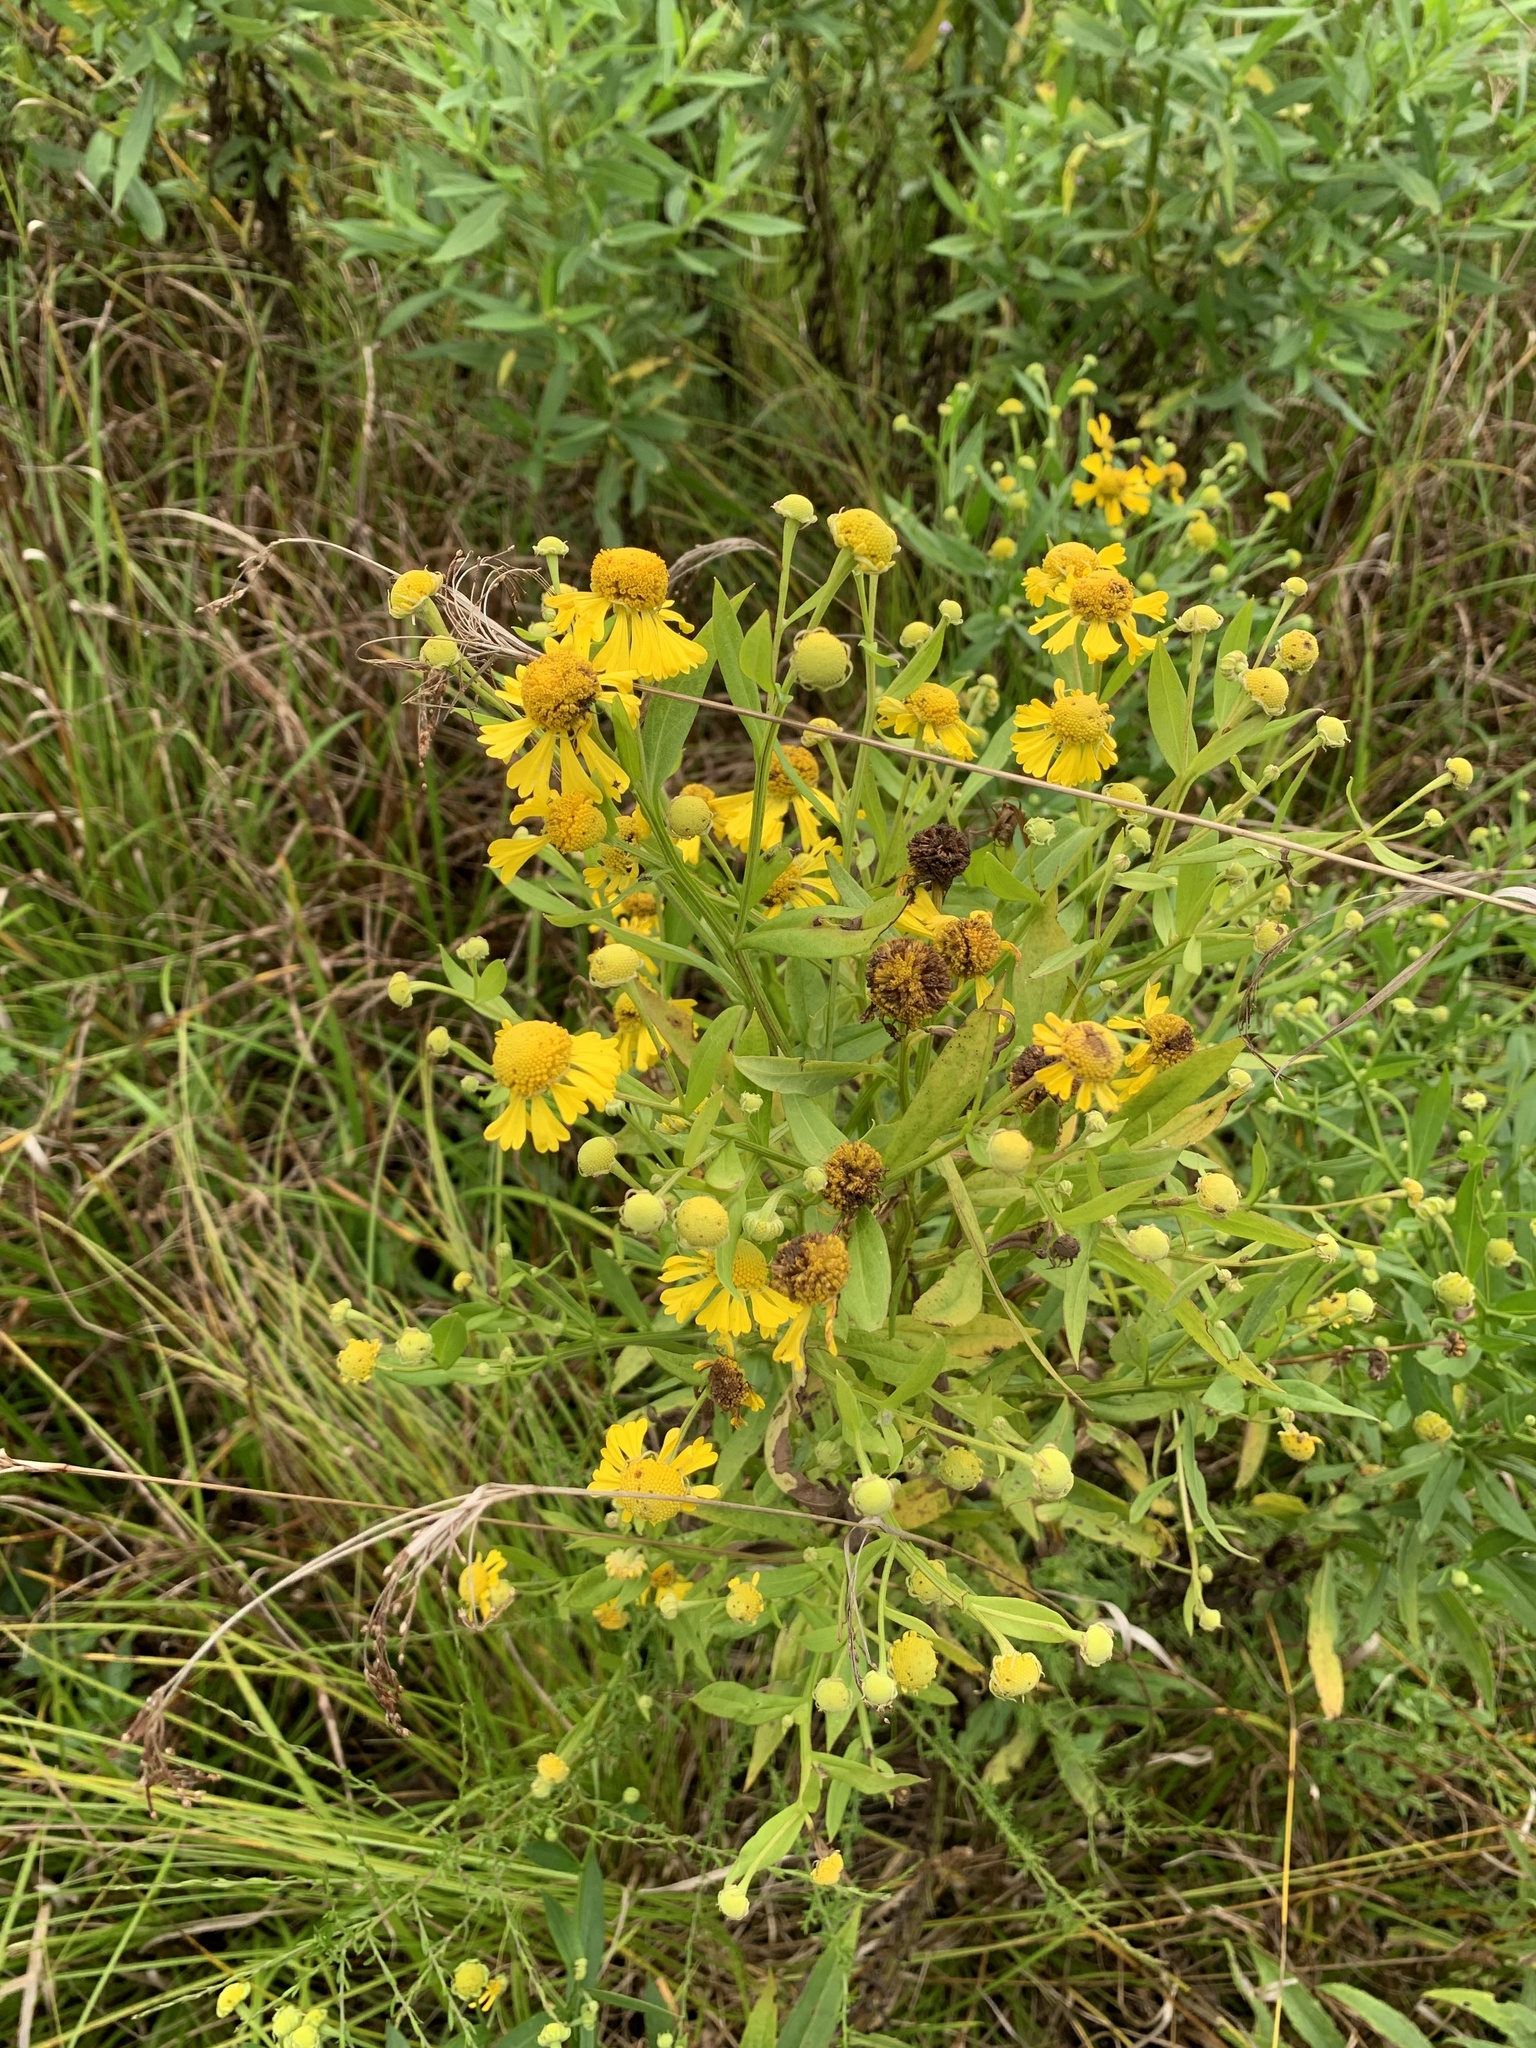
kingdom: Plantae
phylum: Tracheophyta
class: Magnoliopsida
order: Asterales
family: Asteraceae
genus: Helenium
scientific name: Helenium autumnale
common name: Sneezeweed
